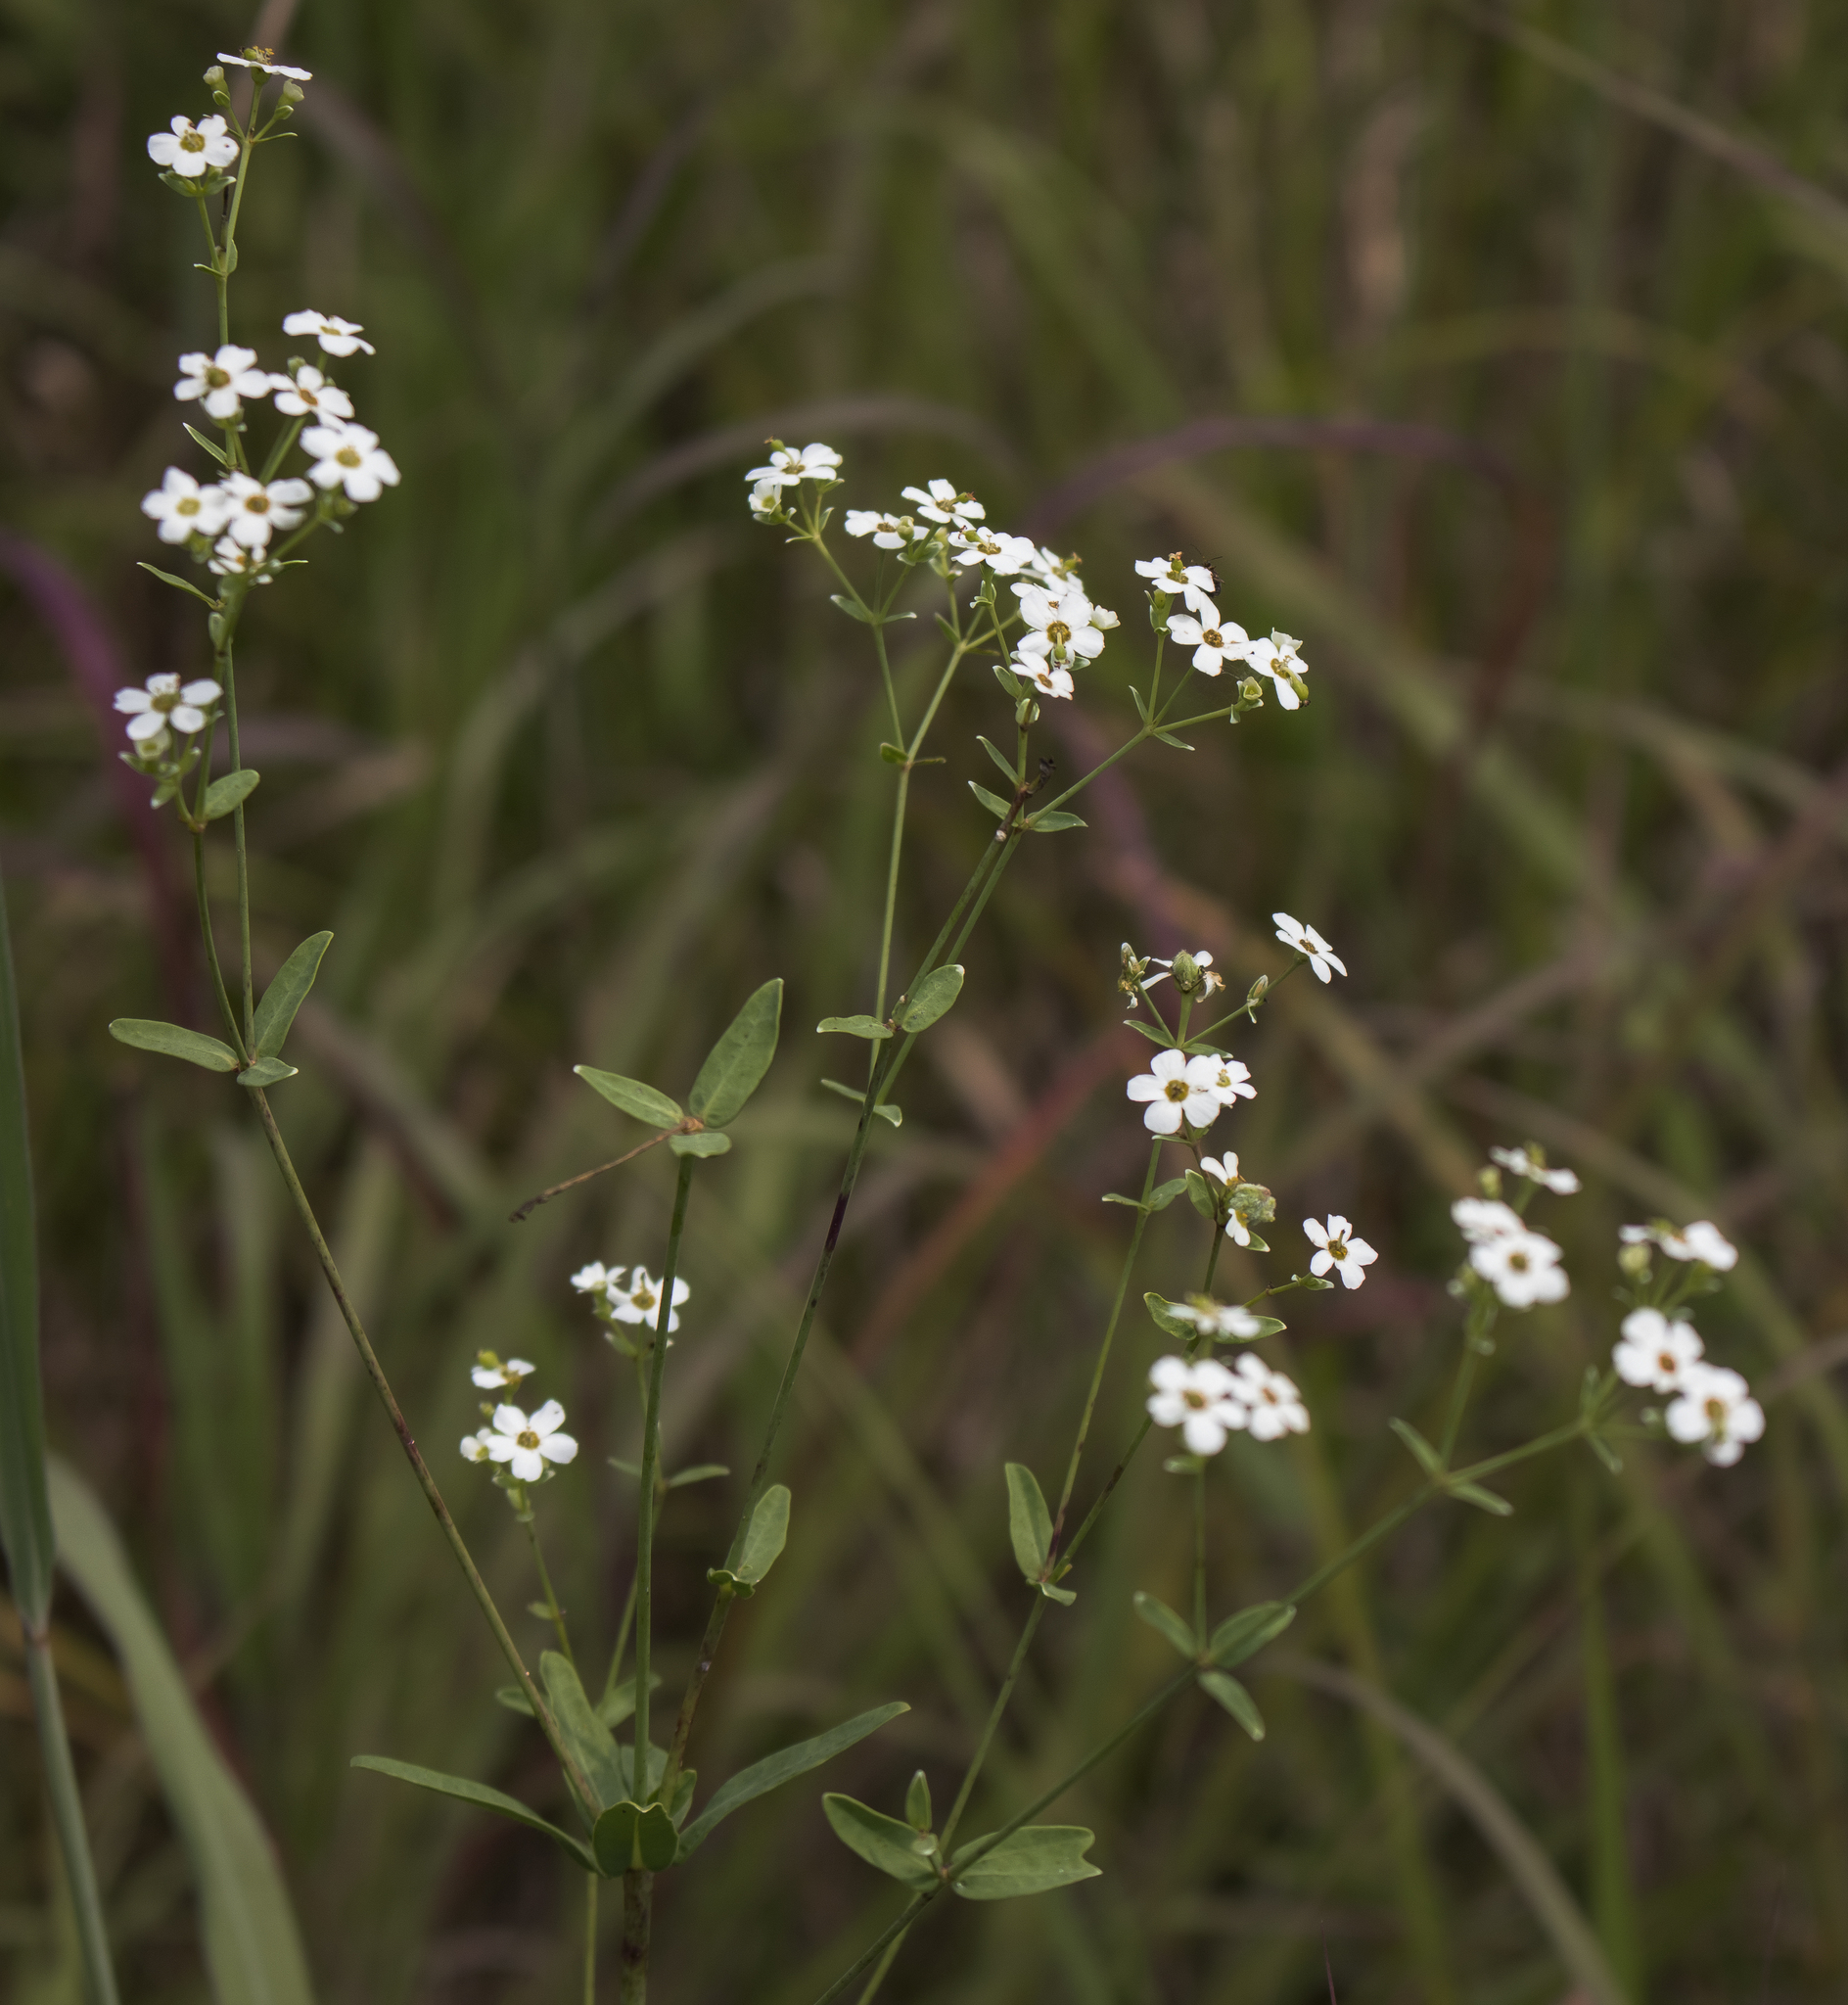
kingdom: Plantae
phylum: Tracheophyta
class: Magnoliopsida
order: Malpighiales
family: Euphorbiaceae
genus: Euphorbia
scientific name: Euphorbia corollata
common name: Flowering spurge
